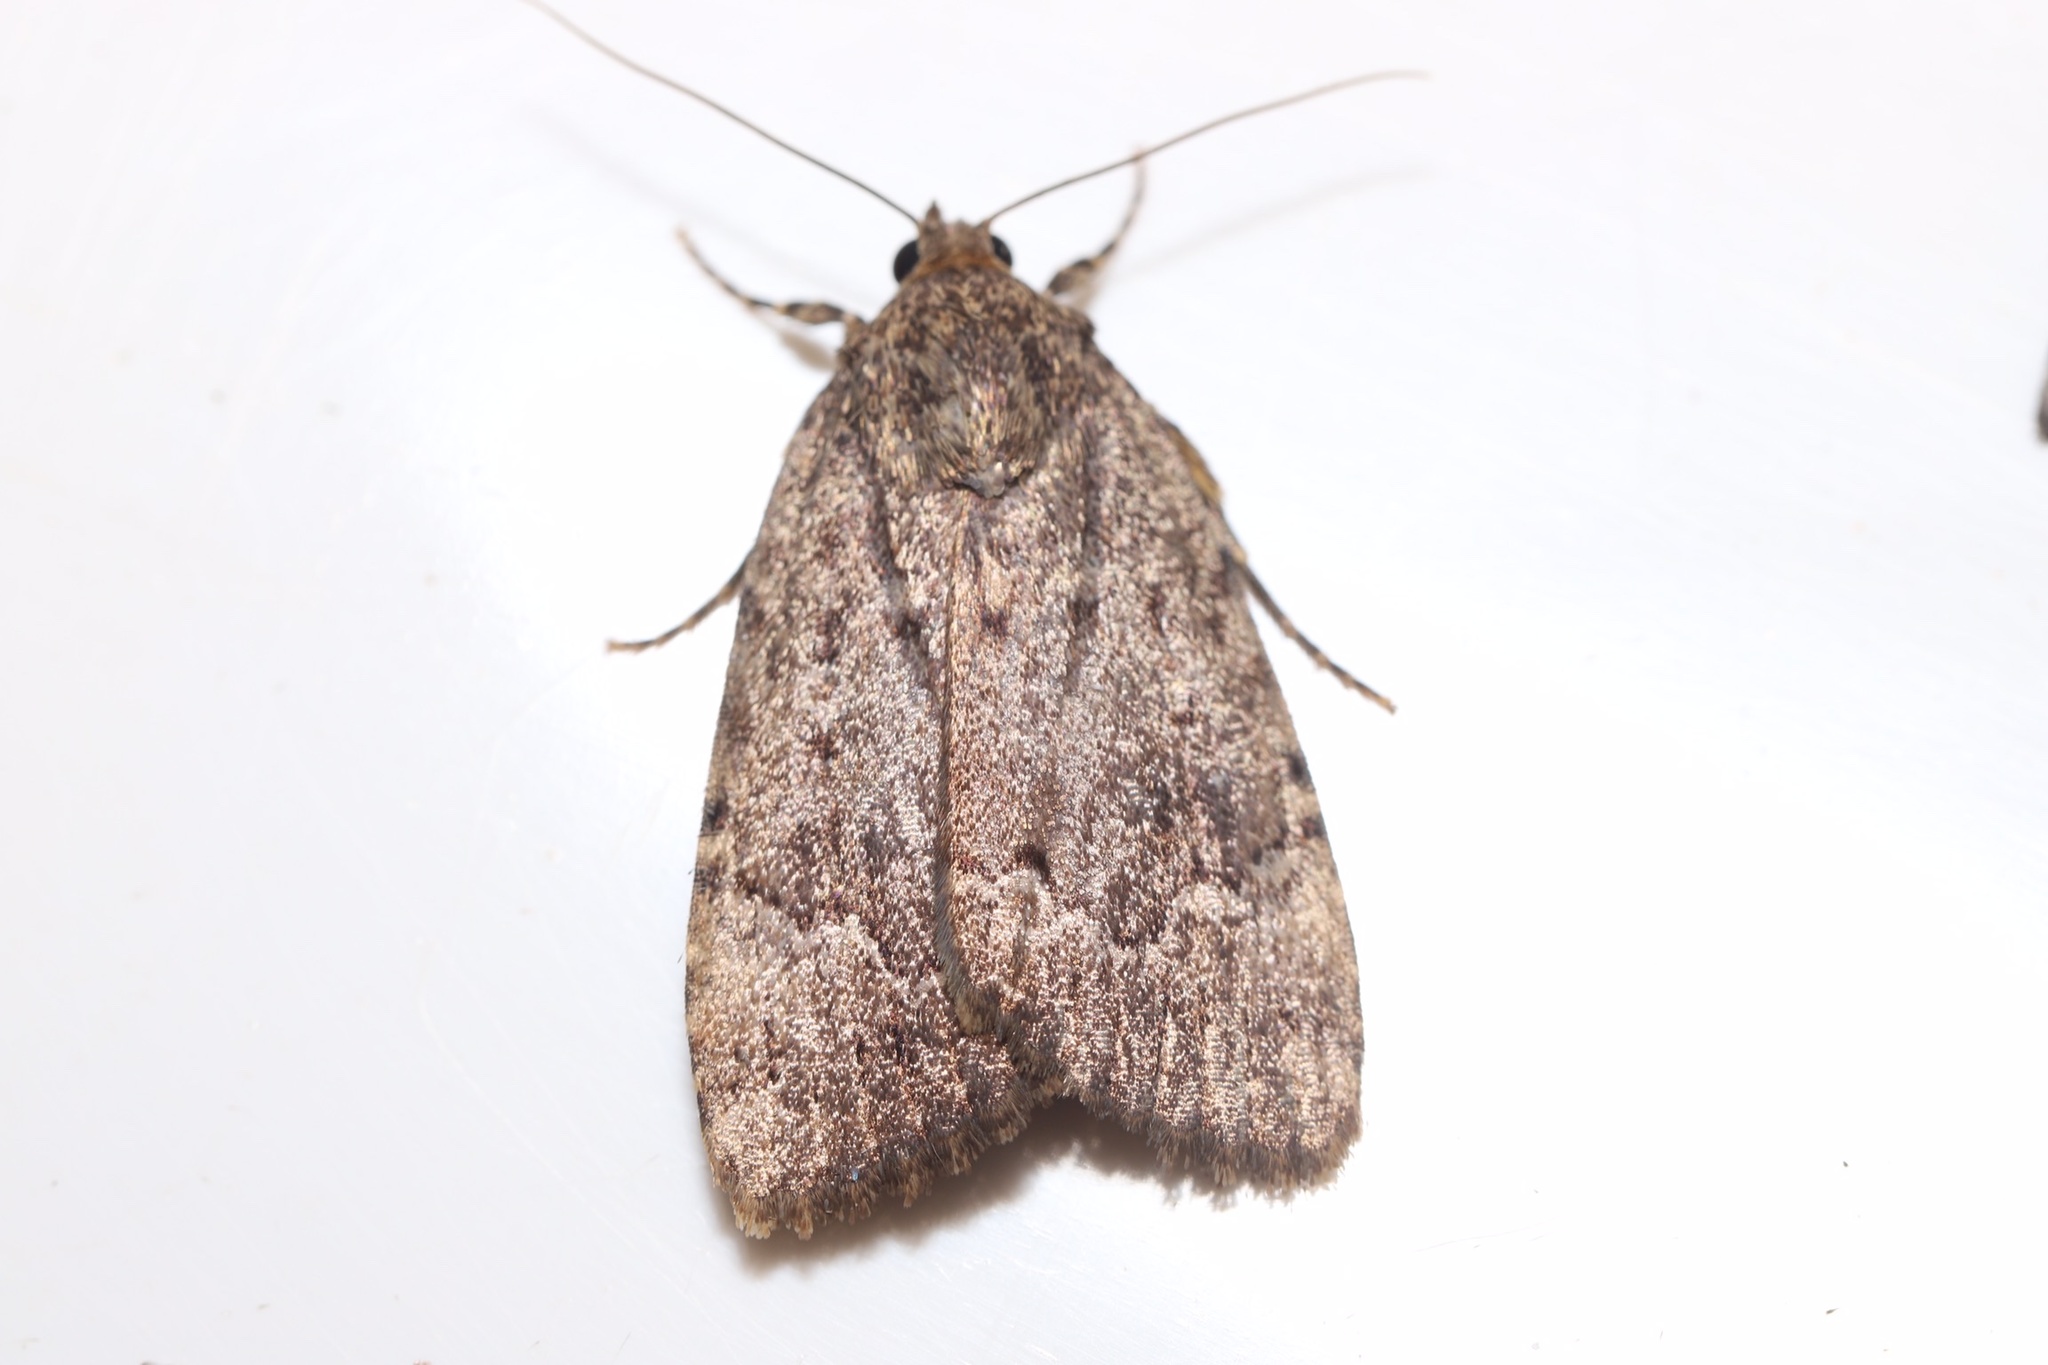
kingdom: Animalia
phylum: Arthropoda
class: Insecta
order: Lepidoptera
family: Noctuidae
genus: Amphipyra
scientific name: Amphipyra pyramidoides
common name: American copper underwing
